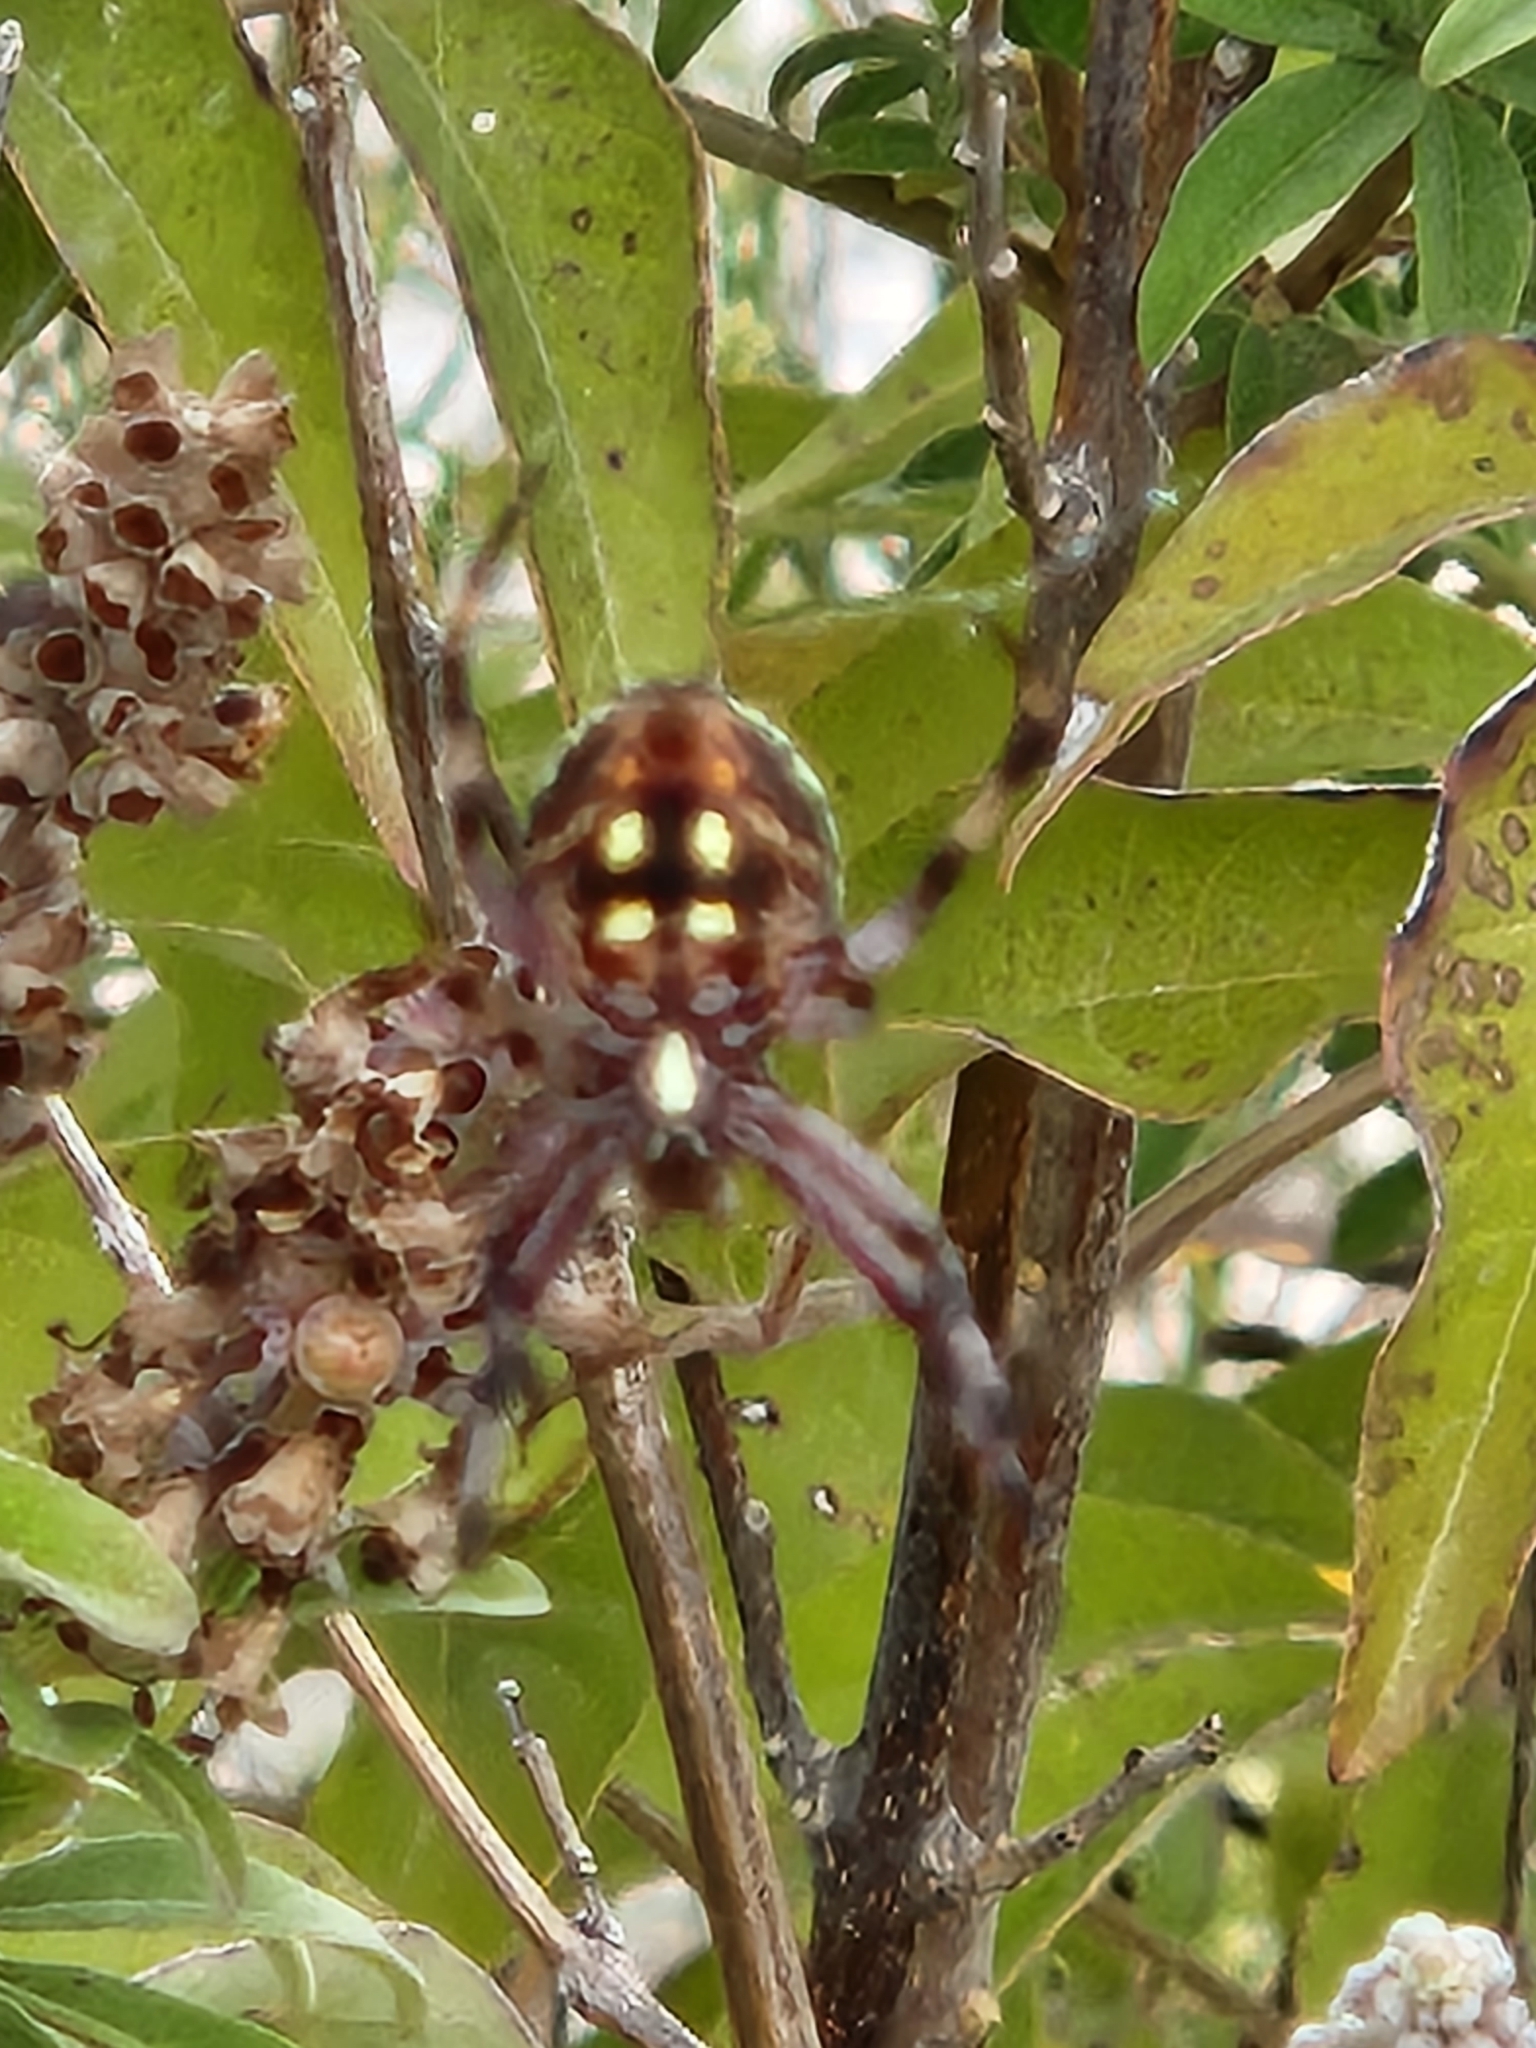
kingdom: Animalia
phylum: Arthropoda
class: Arachnida
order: Araneae
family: Araneidae
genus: Neoscona
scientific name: Neoscona oaxacensis
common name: Orb weavers
